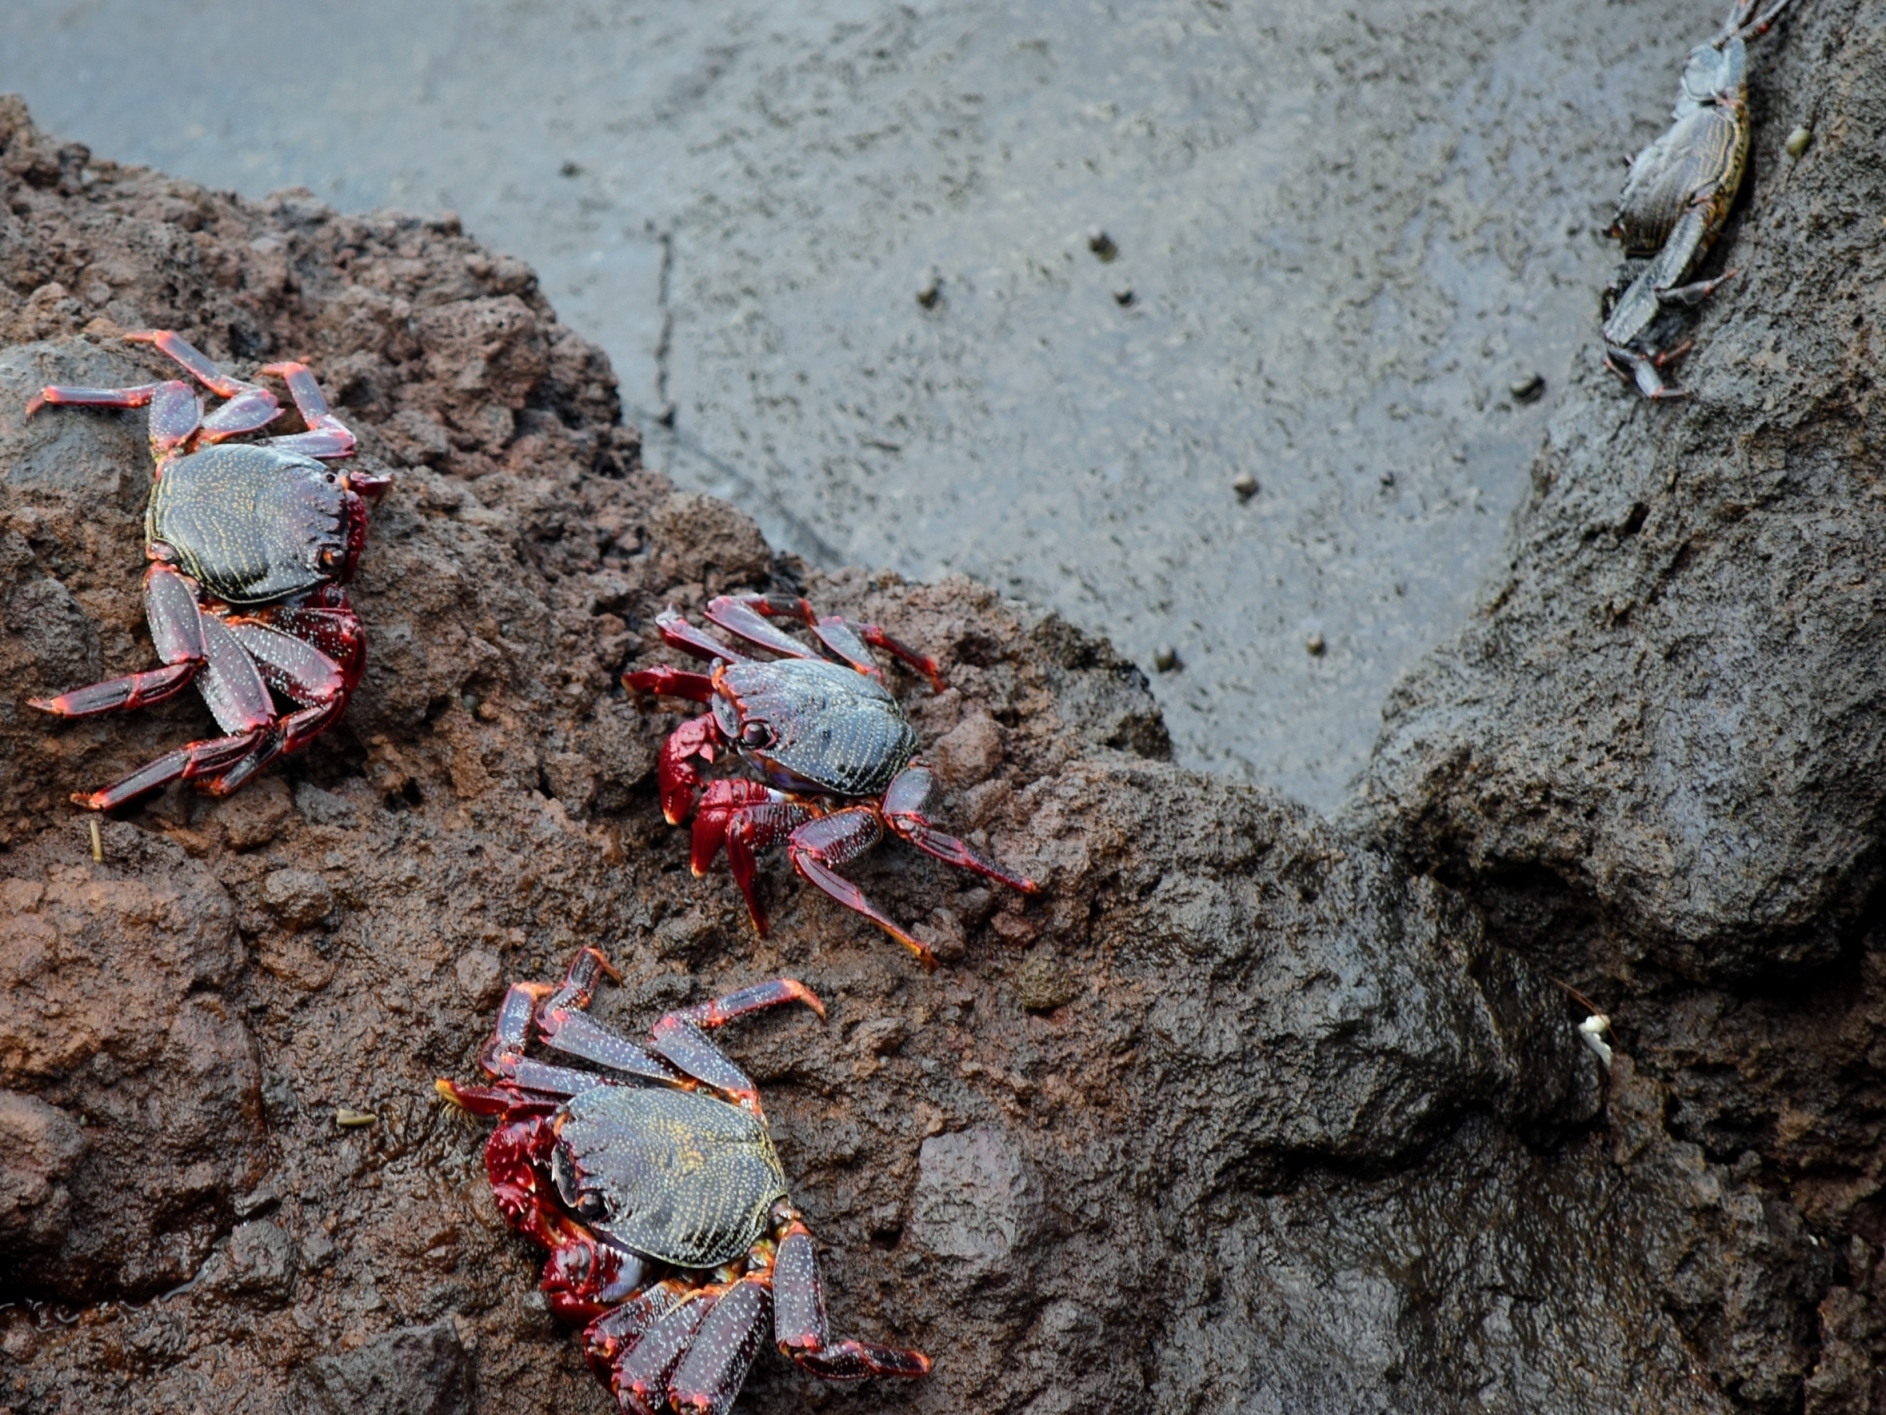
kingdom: Animalia
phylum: Arthropoda
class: Malacostraca
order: Decapoda
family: Grapsidae
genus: Grapsus
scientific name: Grapsus adscensionis
